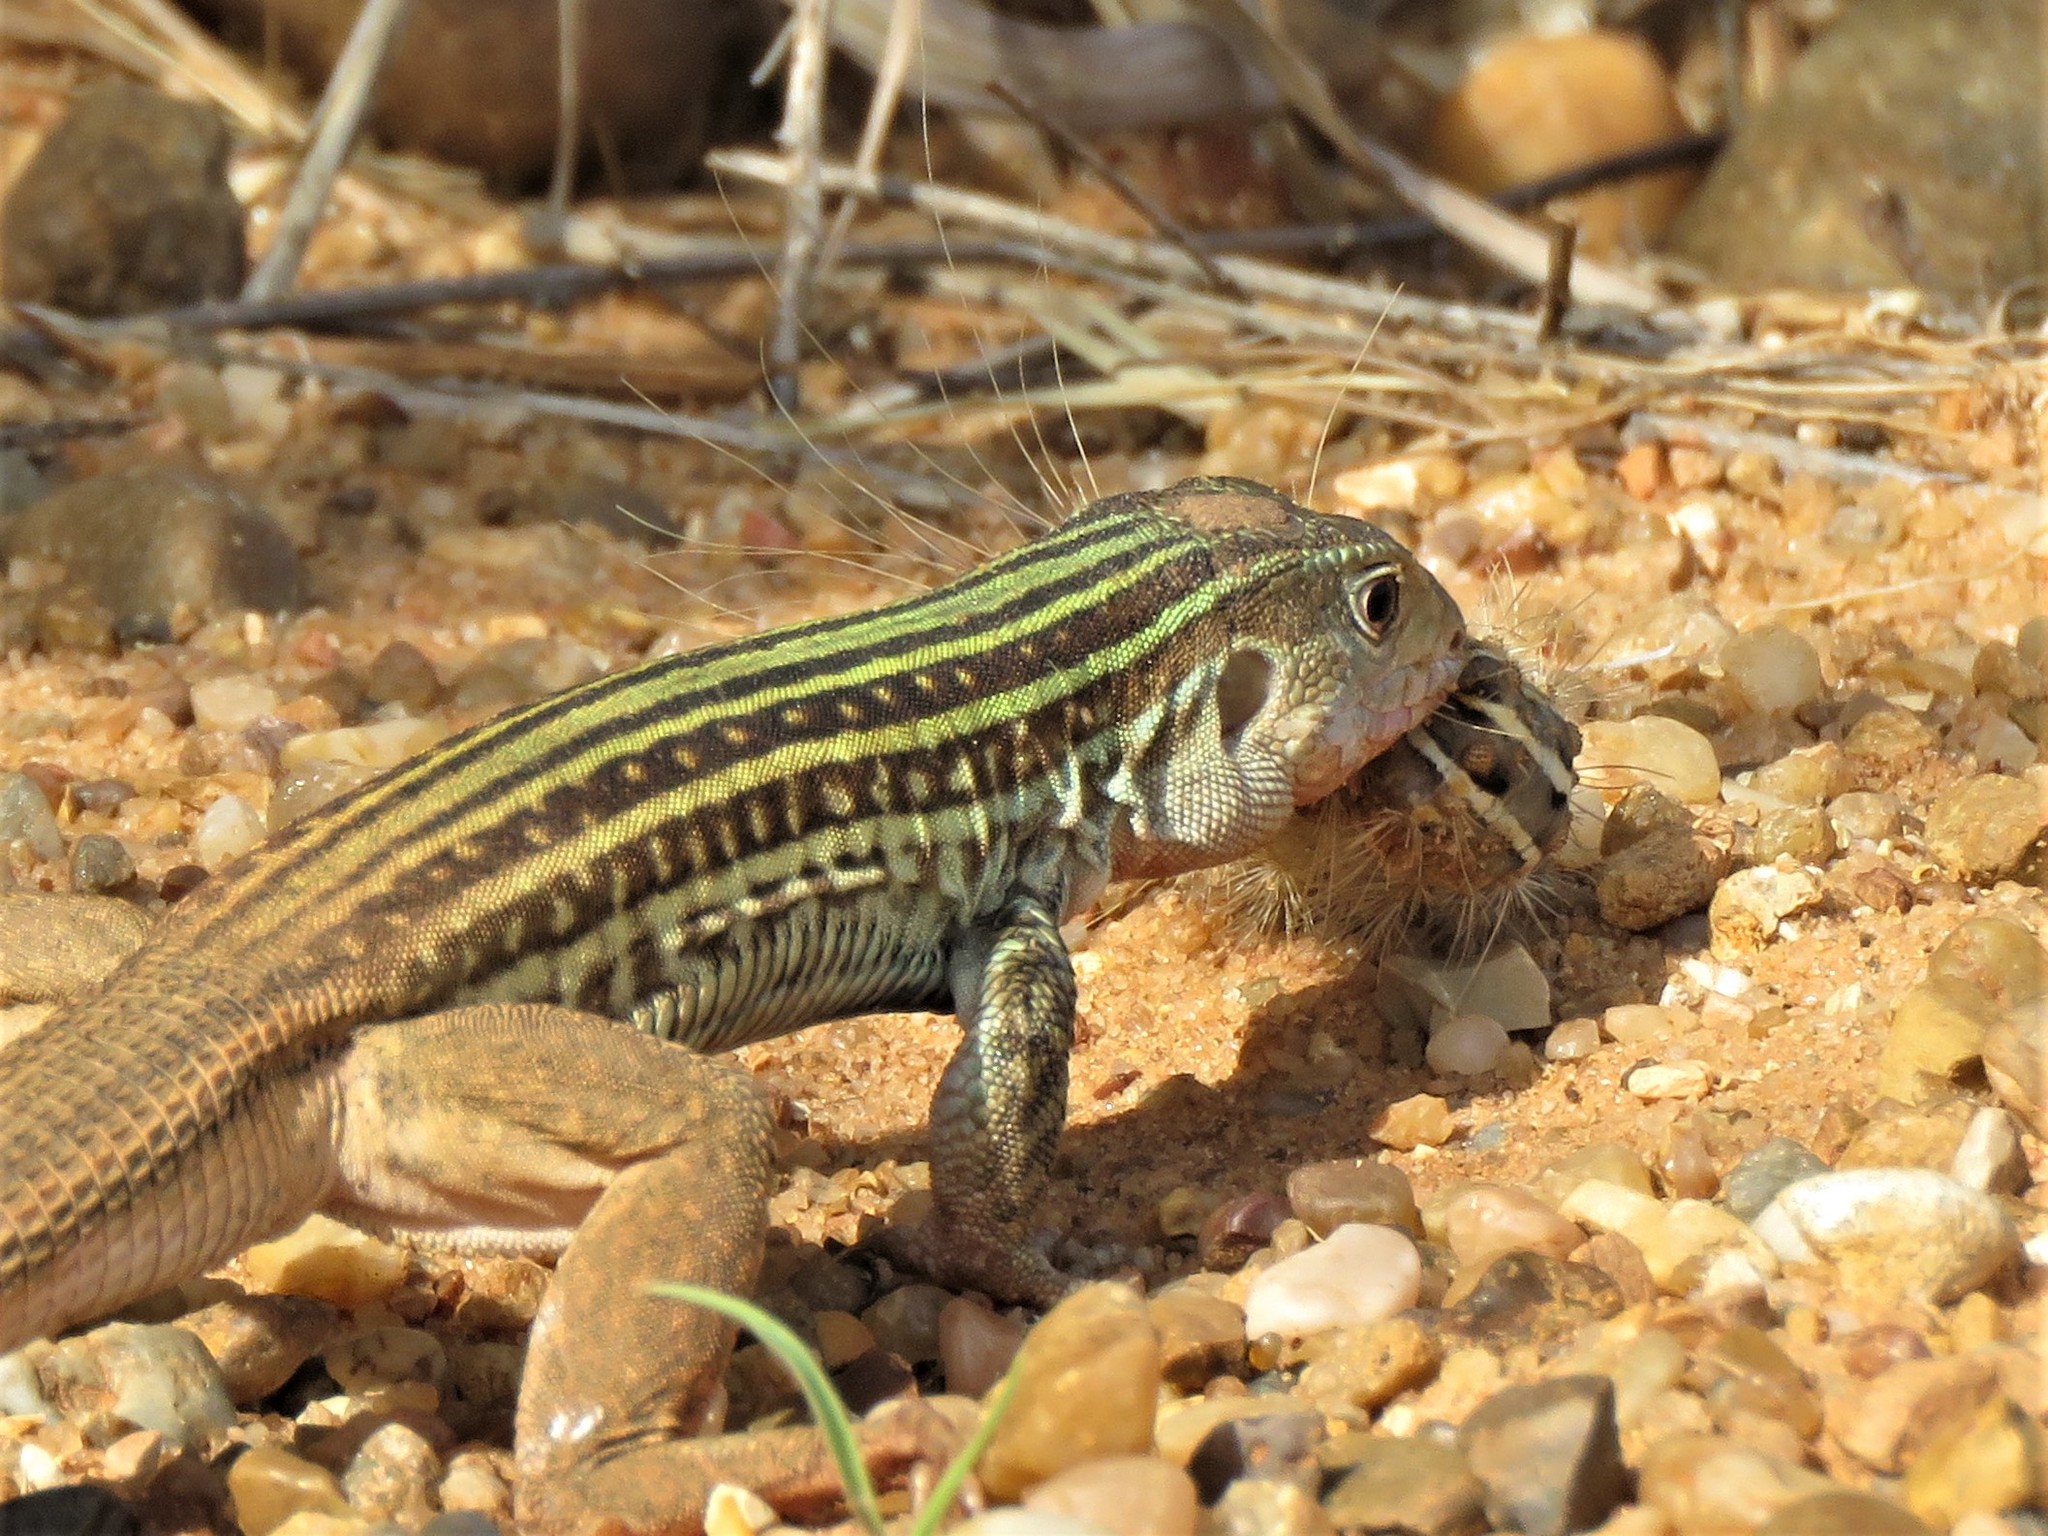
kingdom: Animalia
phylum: Chordata
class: Squamata
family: Teiidae
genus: Aspidoscelis
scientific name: Aspidoscelis gularis
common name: Eastern spotted whiptail
